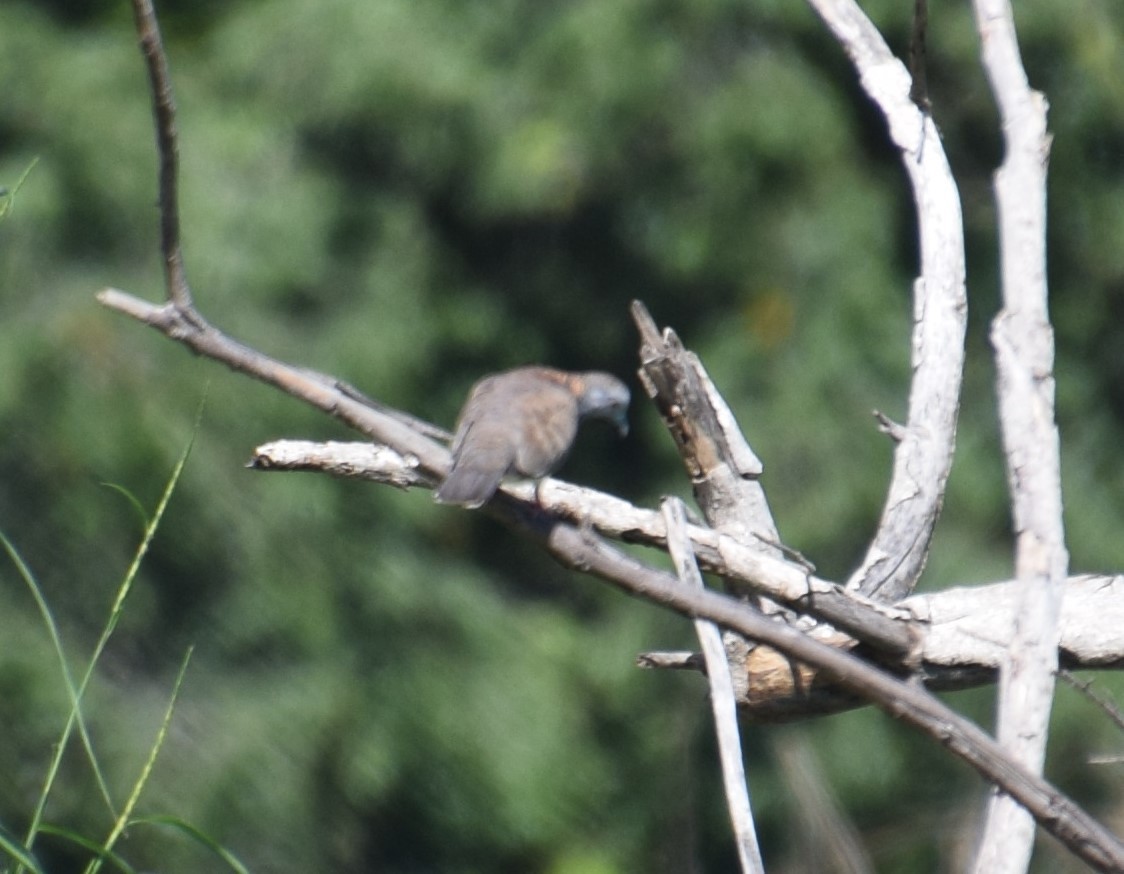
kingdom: Animalia
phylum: Chordata
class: Aves
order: Columbiformes
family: Columbidae
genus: Geopelia
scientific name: Geopelia humeralis
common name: Bar-shouldered dove
